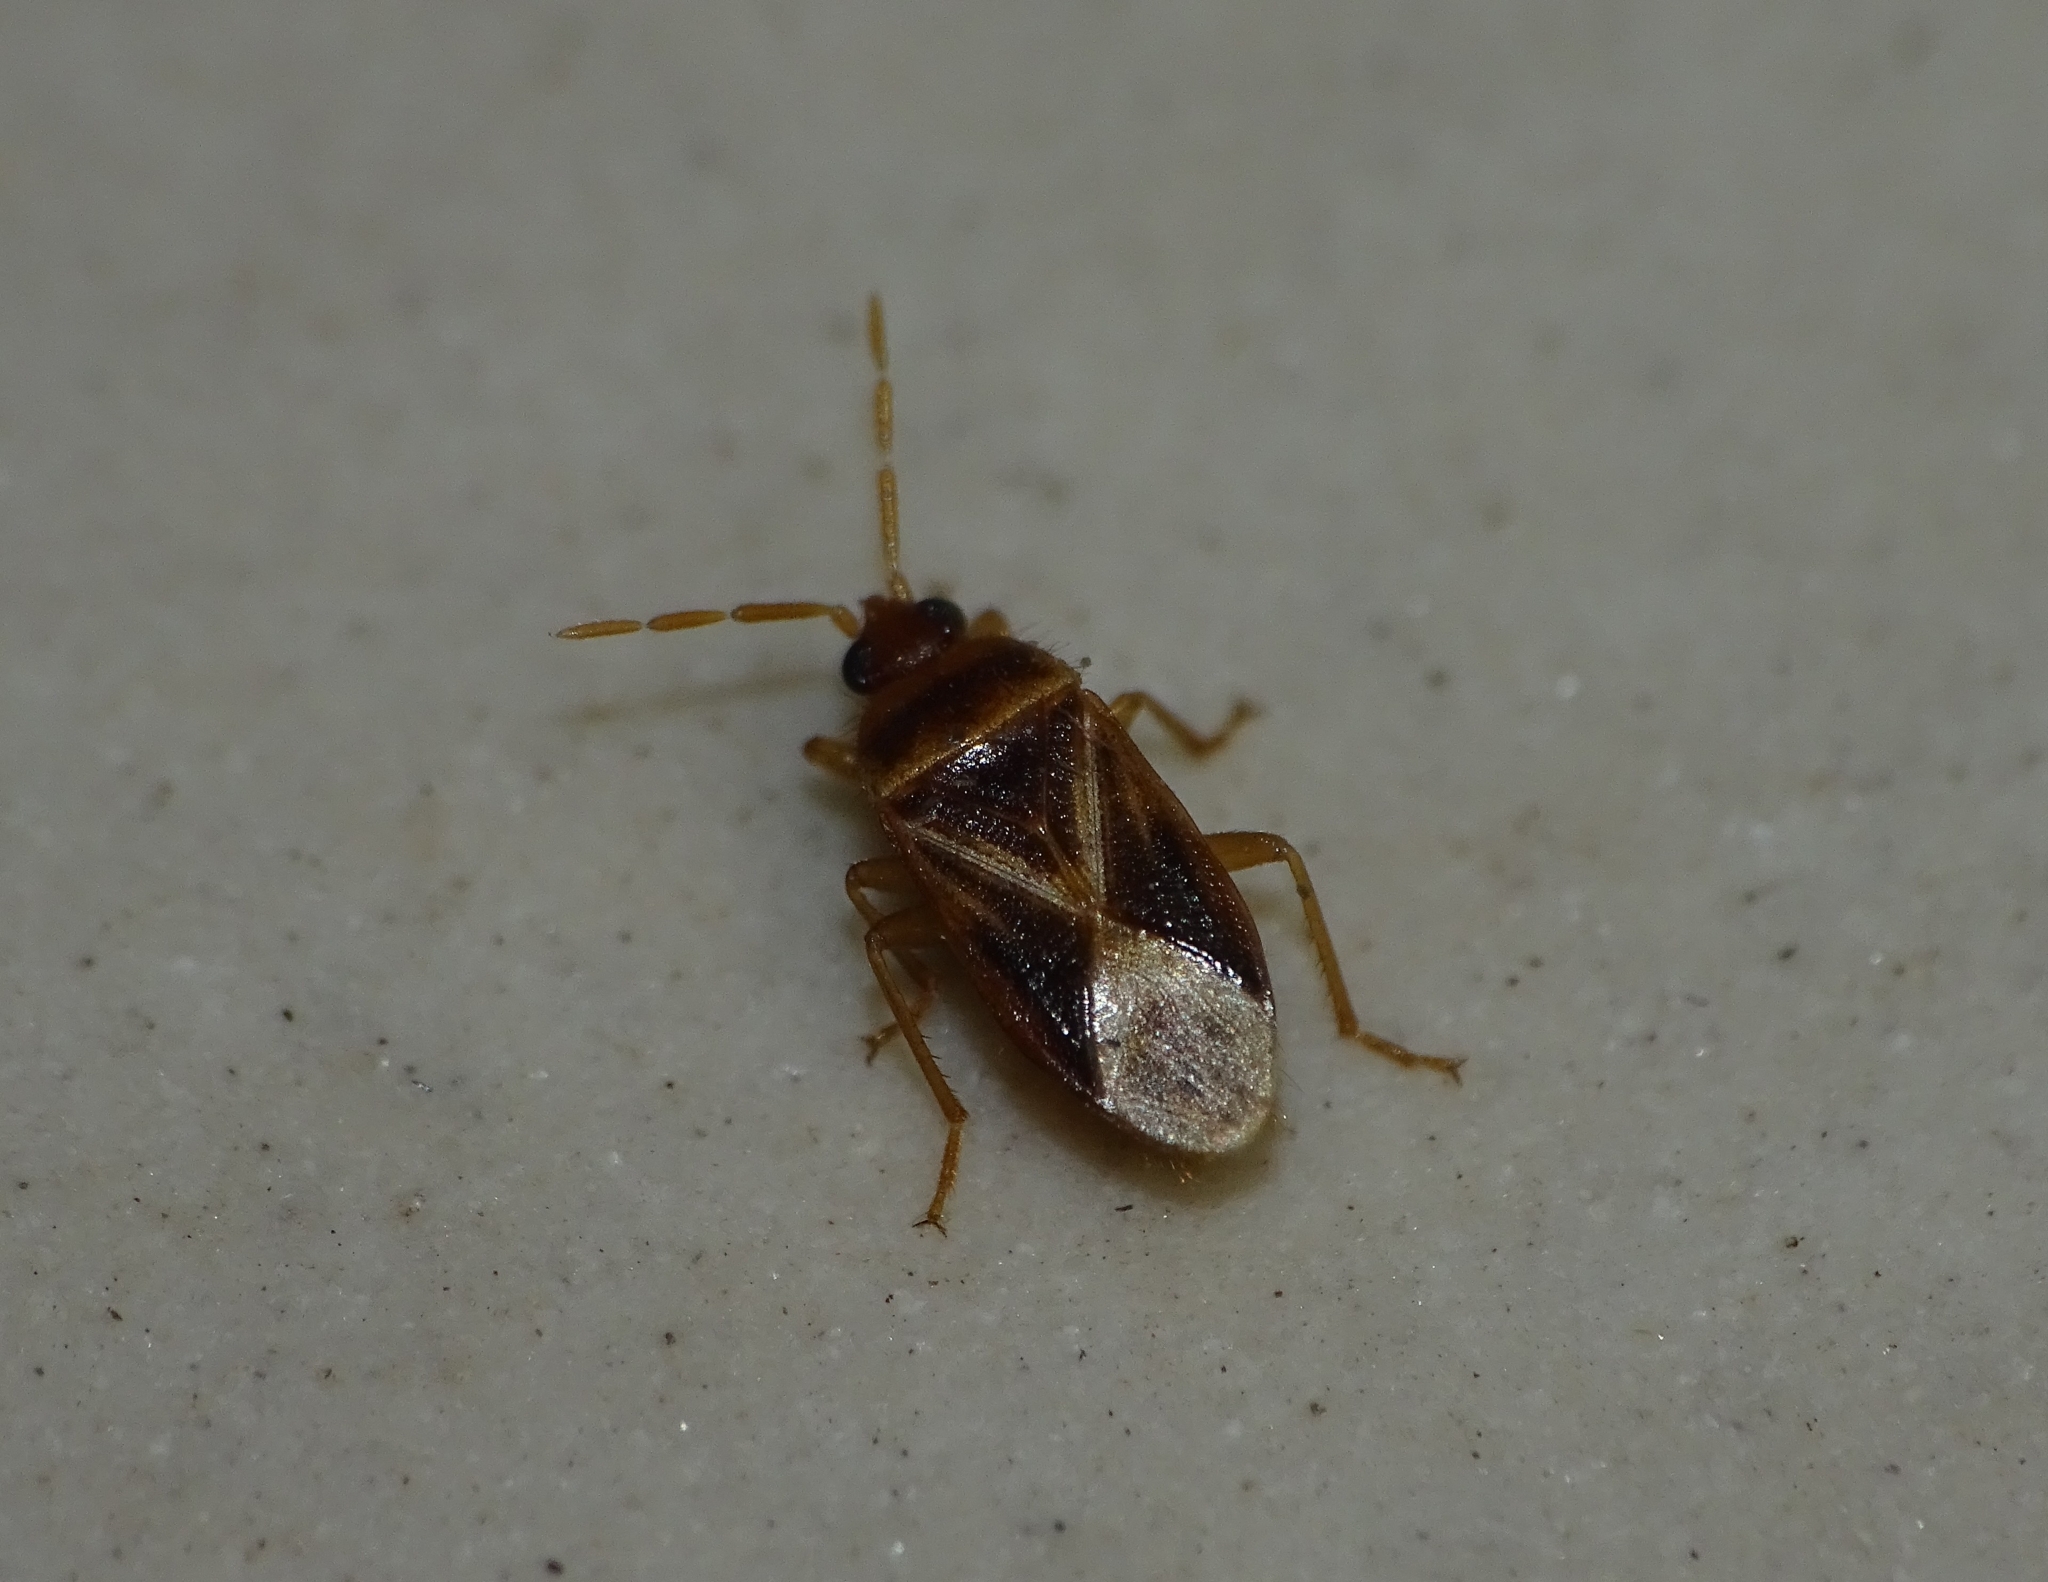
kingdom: Animalia
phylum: Arthropoda
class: Insecta
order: Hemiptera
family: Rhyparochromidae
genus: Harmostica
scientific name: Harmostica ornata
